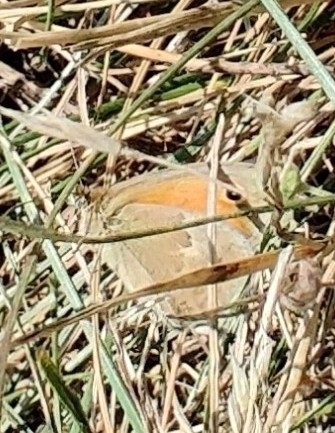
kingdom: Animalia
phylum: Arthropoda
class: Insecta
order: Lepidoptera
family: Nymphalidae
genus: Coenonympha
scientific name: Coenonympha pamphilus
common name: Small heath
